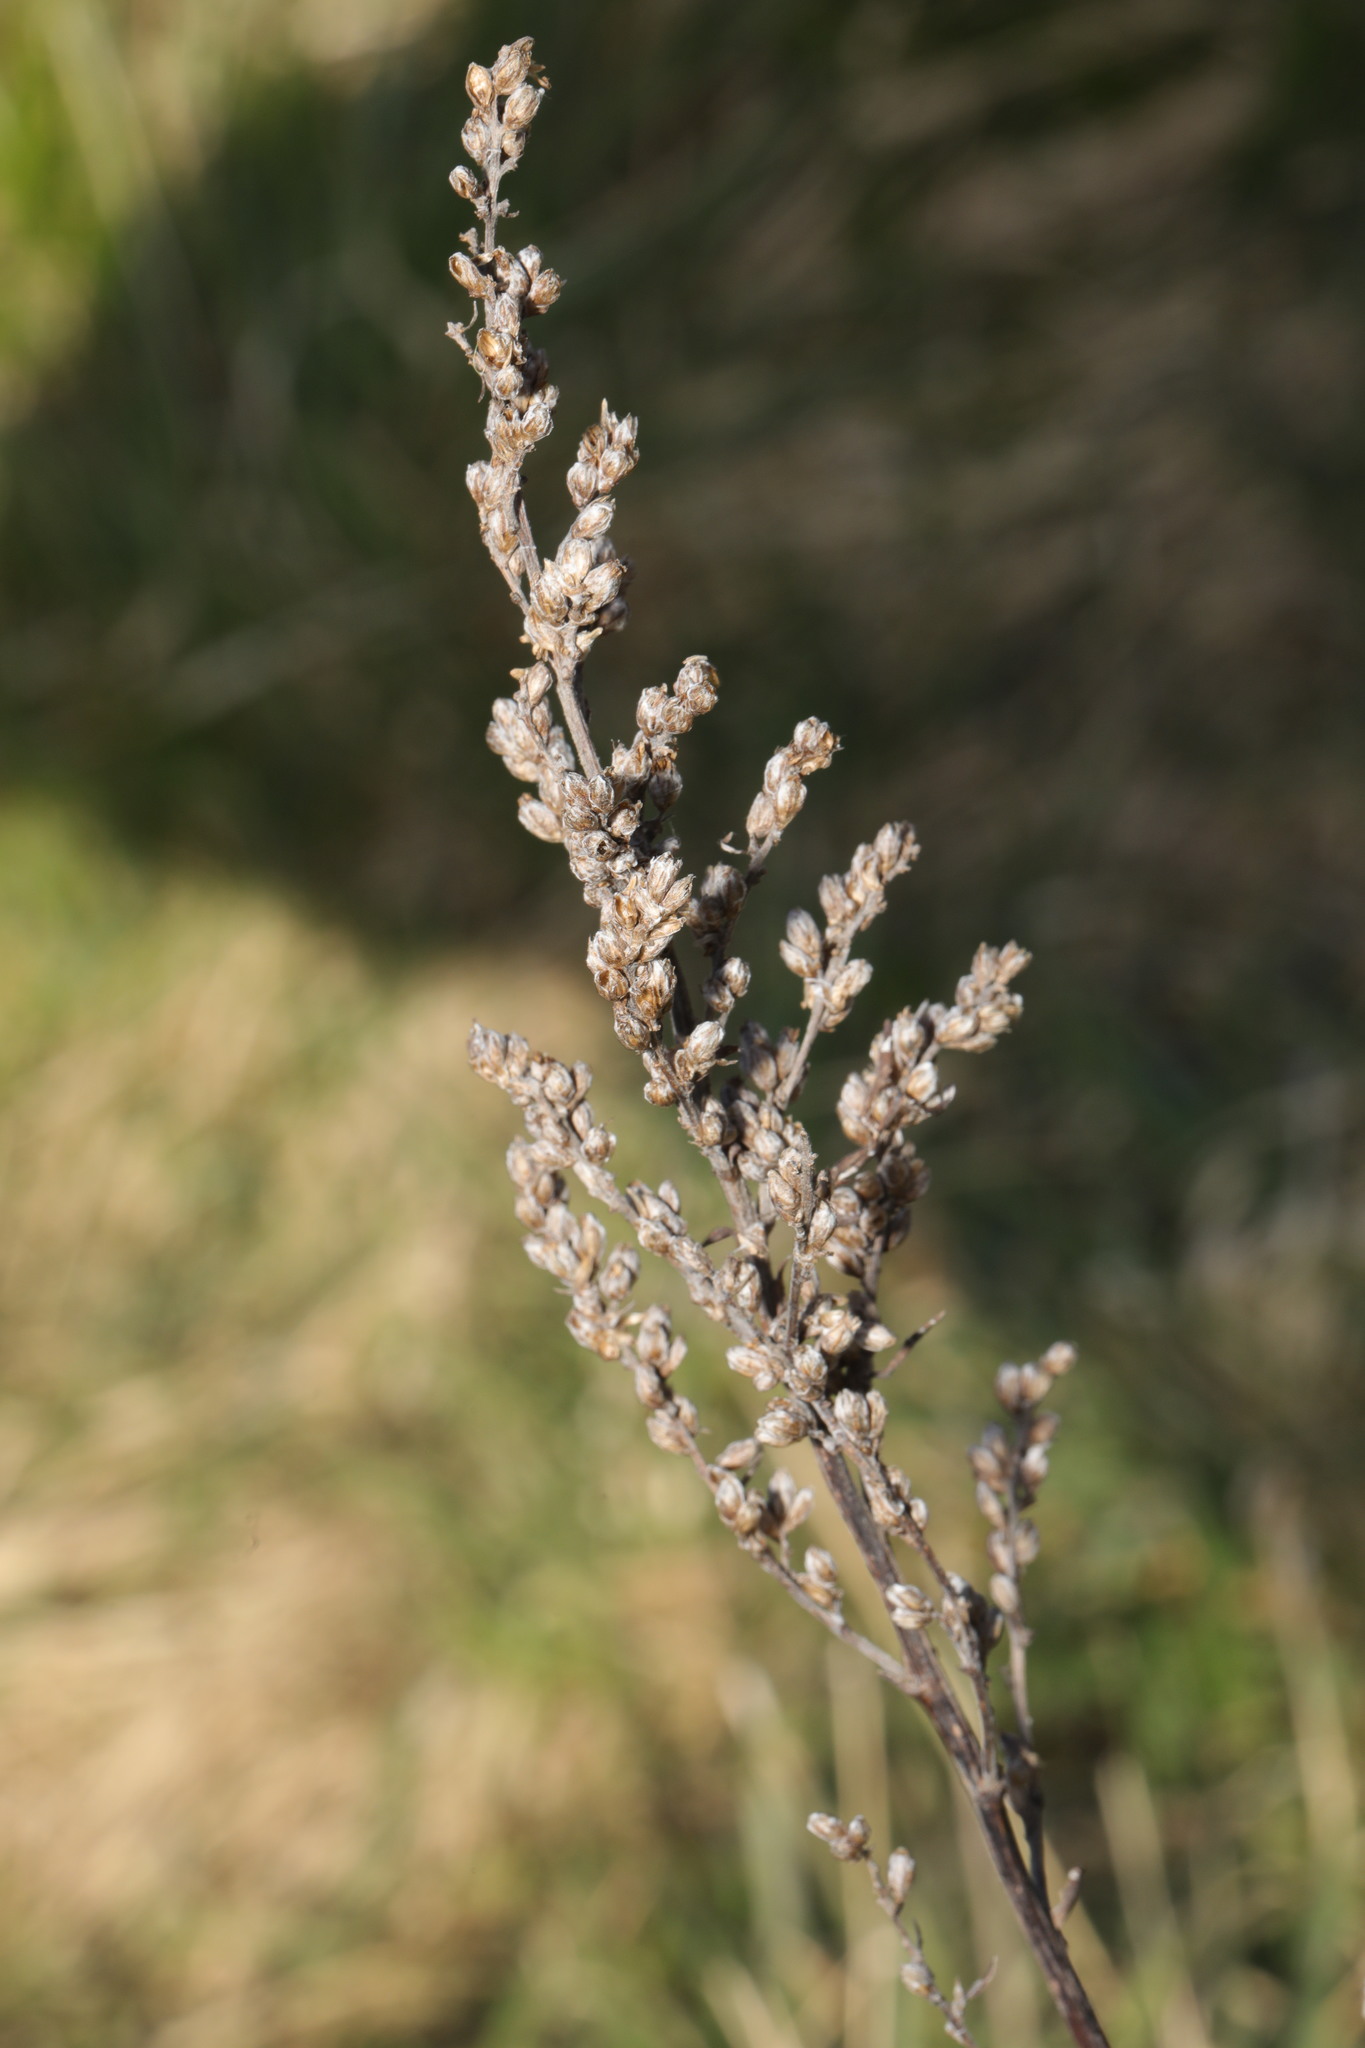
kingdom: Plantae
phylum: Tracheophyta
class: Magnoliopsida
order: Asterales
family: Asteraceae
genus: Artemisia
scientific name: Artemisia vulgaris
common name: Mugwort
